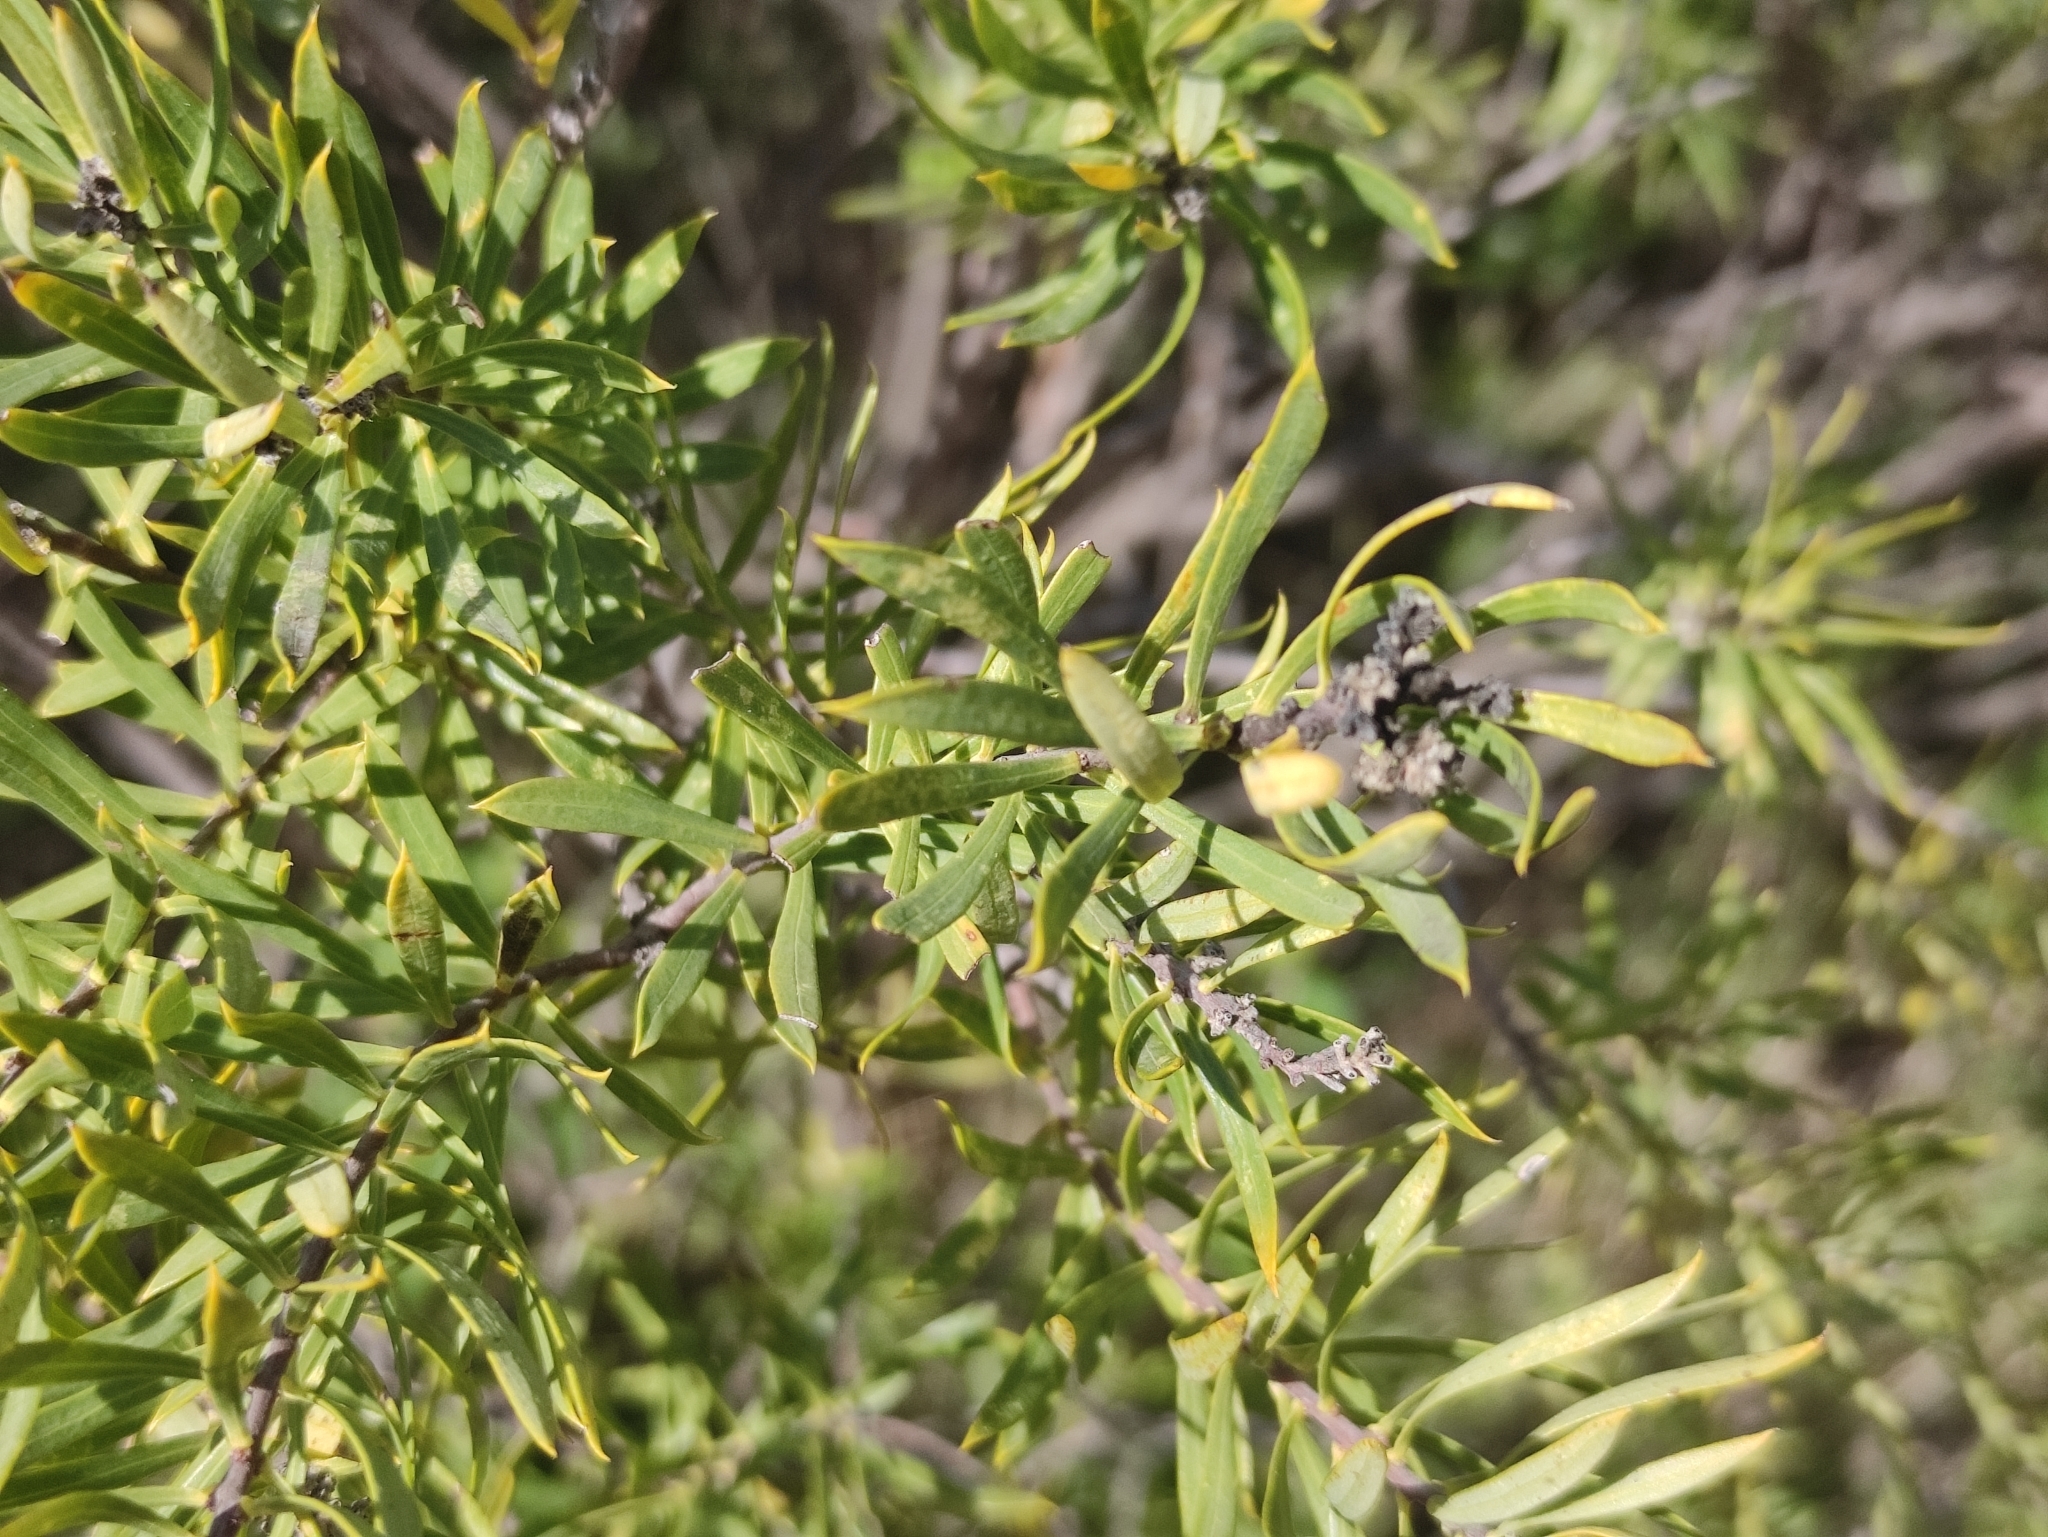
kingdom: Plantae
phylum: Tracheophyta
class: Magnoliopsida
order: Malvales
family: Thymelaeaceae
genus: Daphne
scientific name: Daphne gnidium
